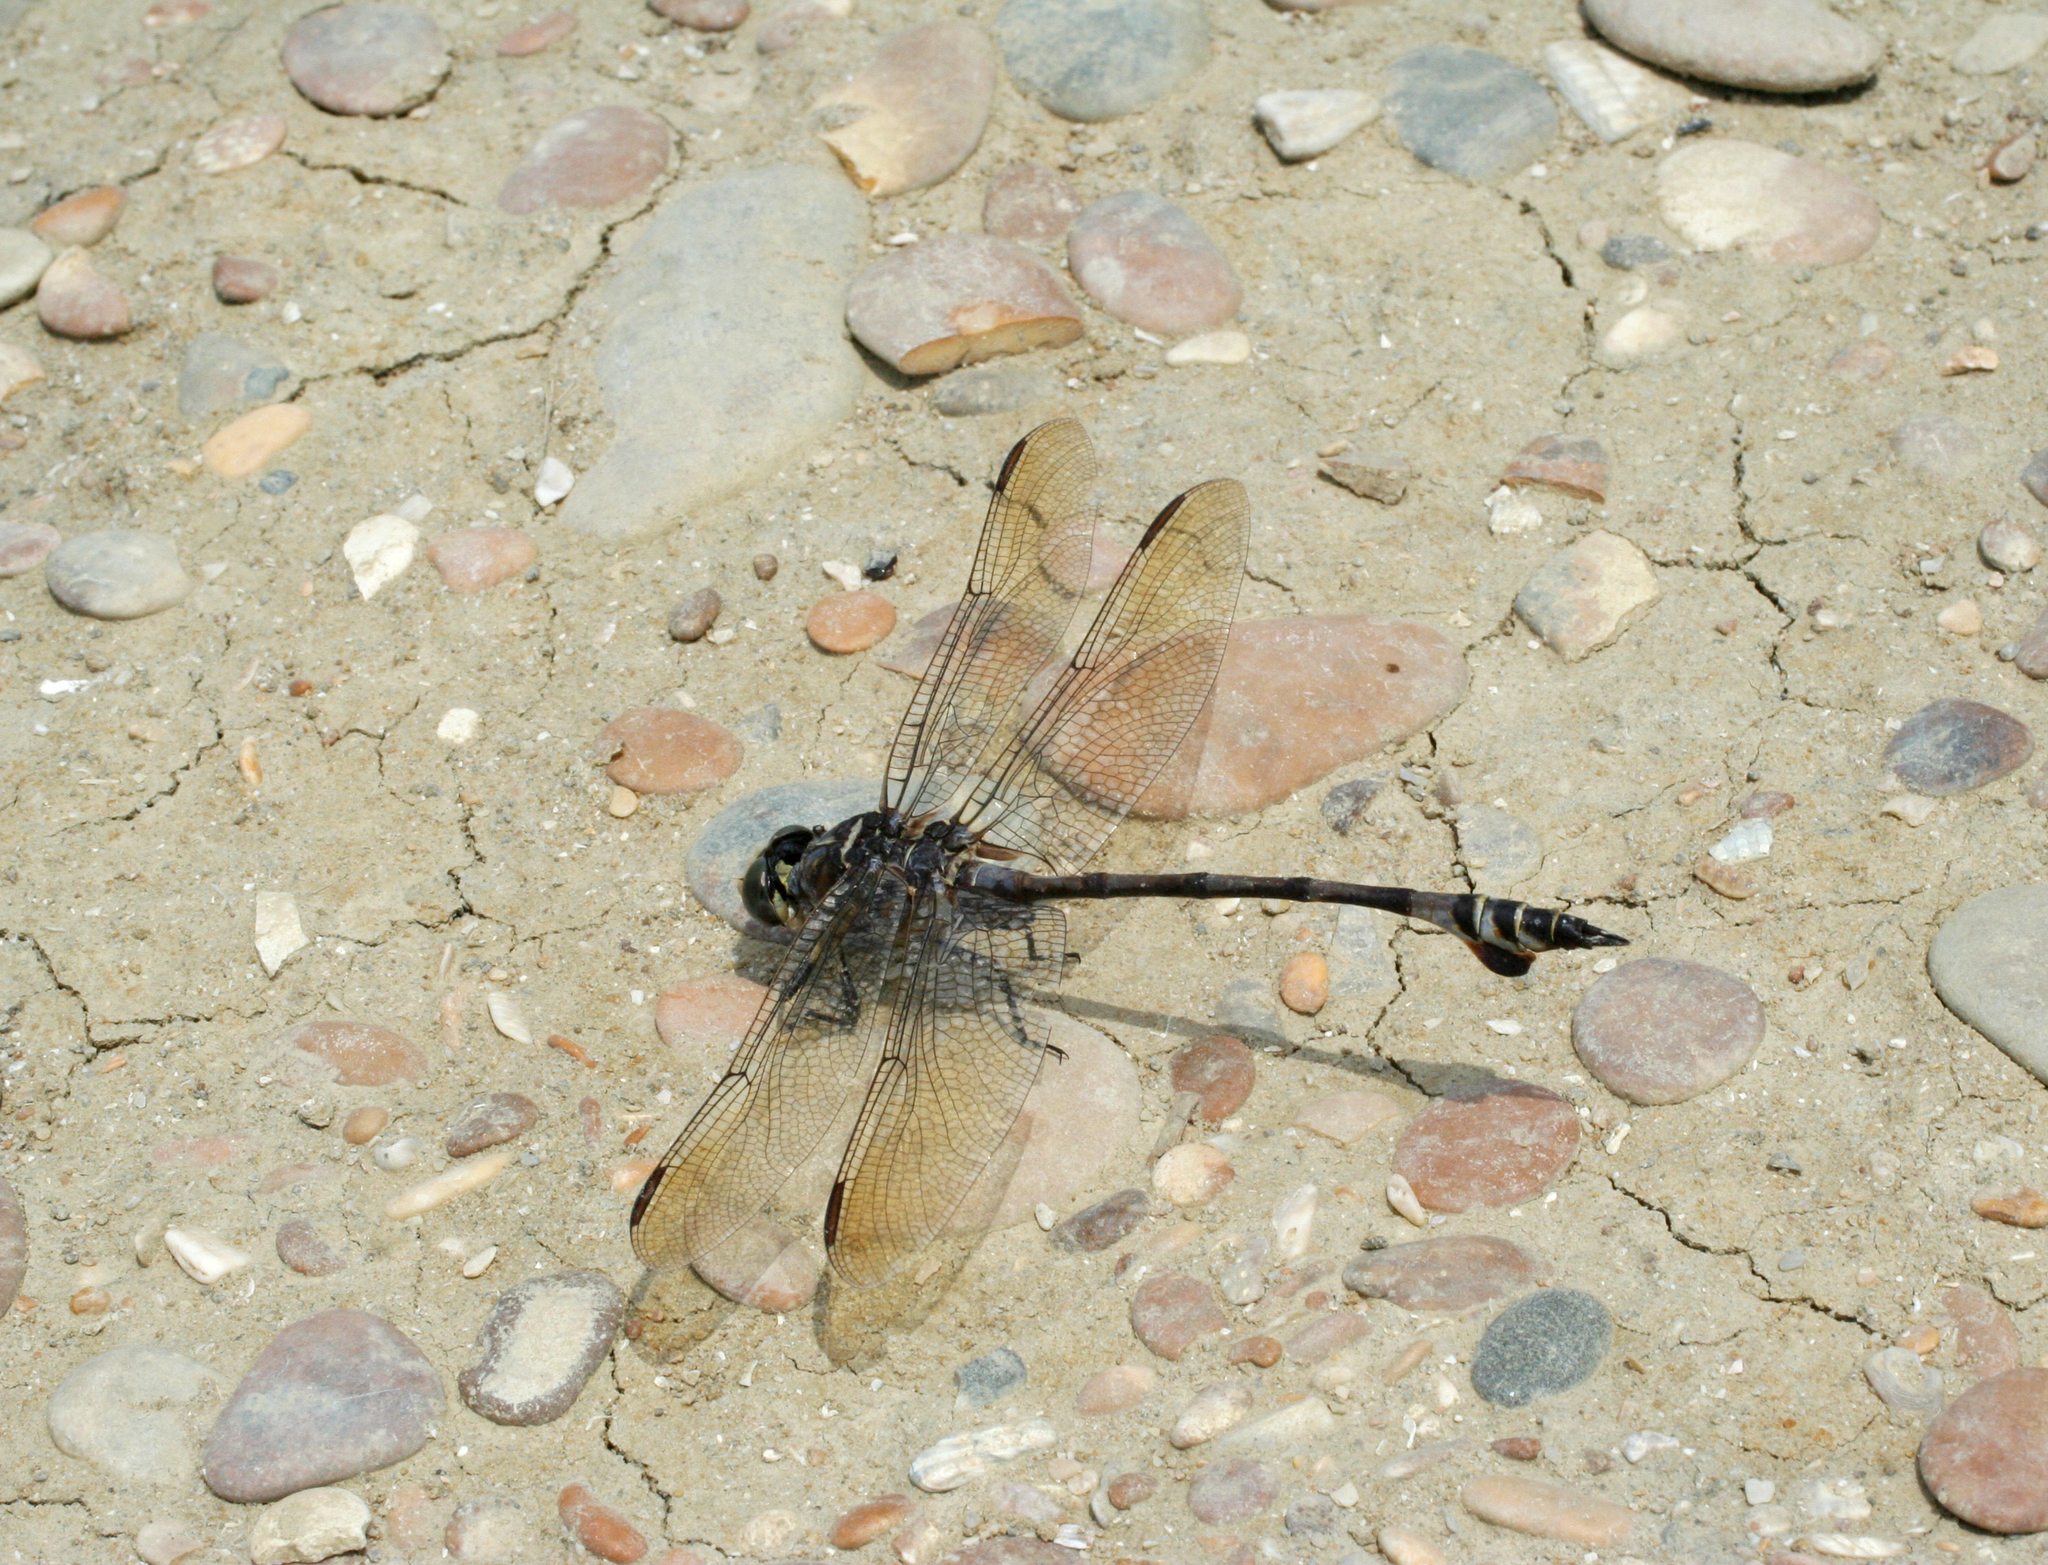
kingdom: Animalia
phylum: Arthropoda
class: Insecta
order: Odonata
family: Gomphidae
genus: Lindenia
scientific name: Lindenia tetraphylla
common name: Bladetail
